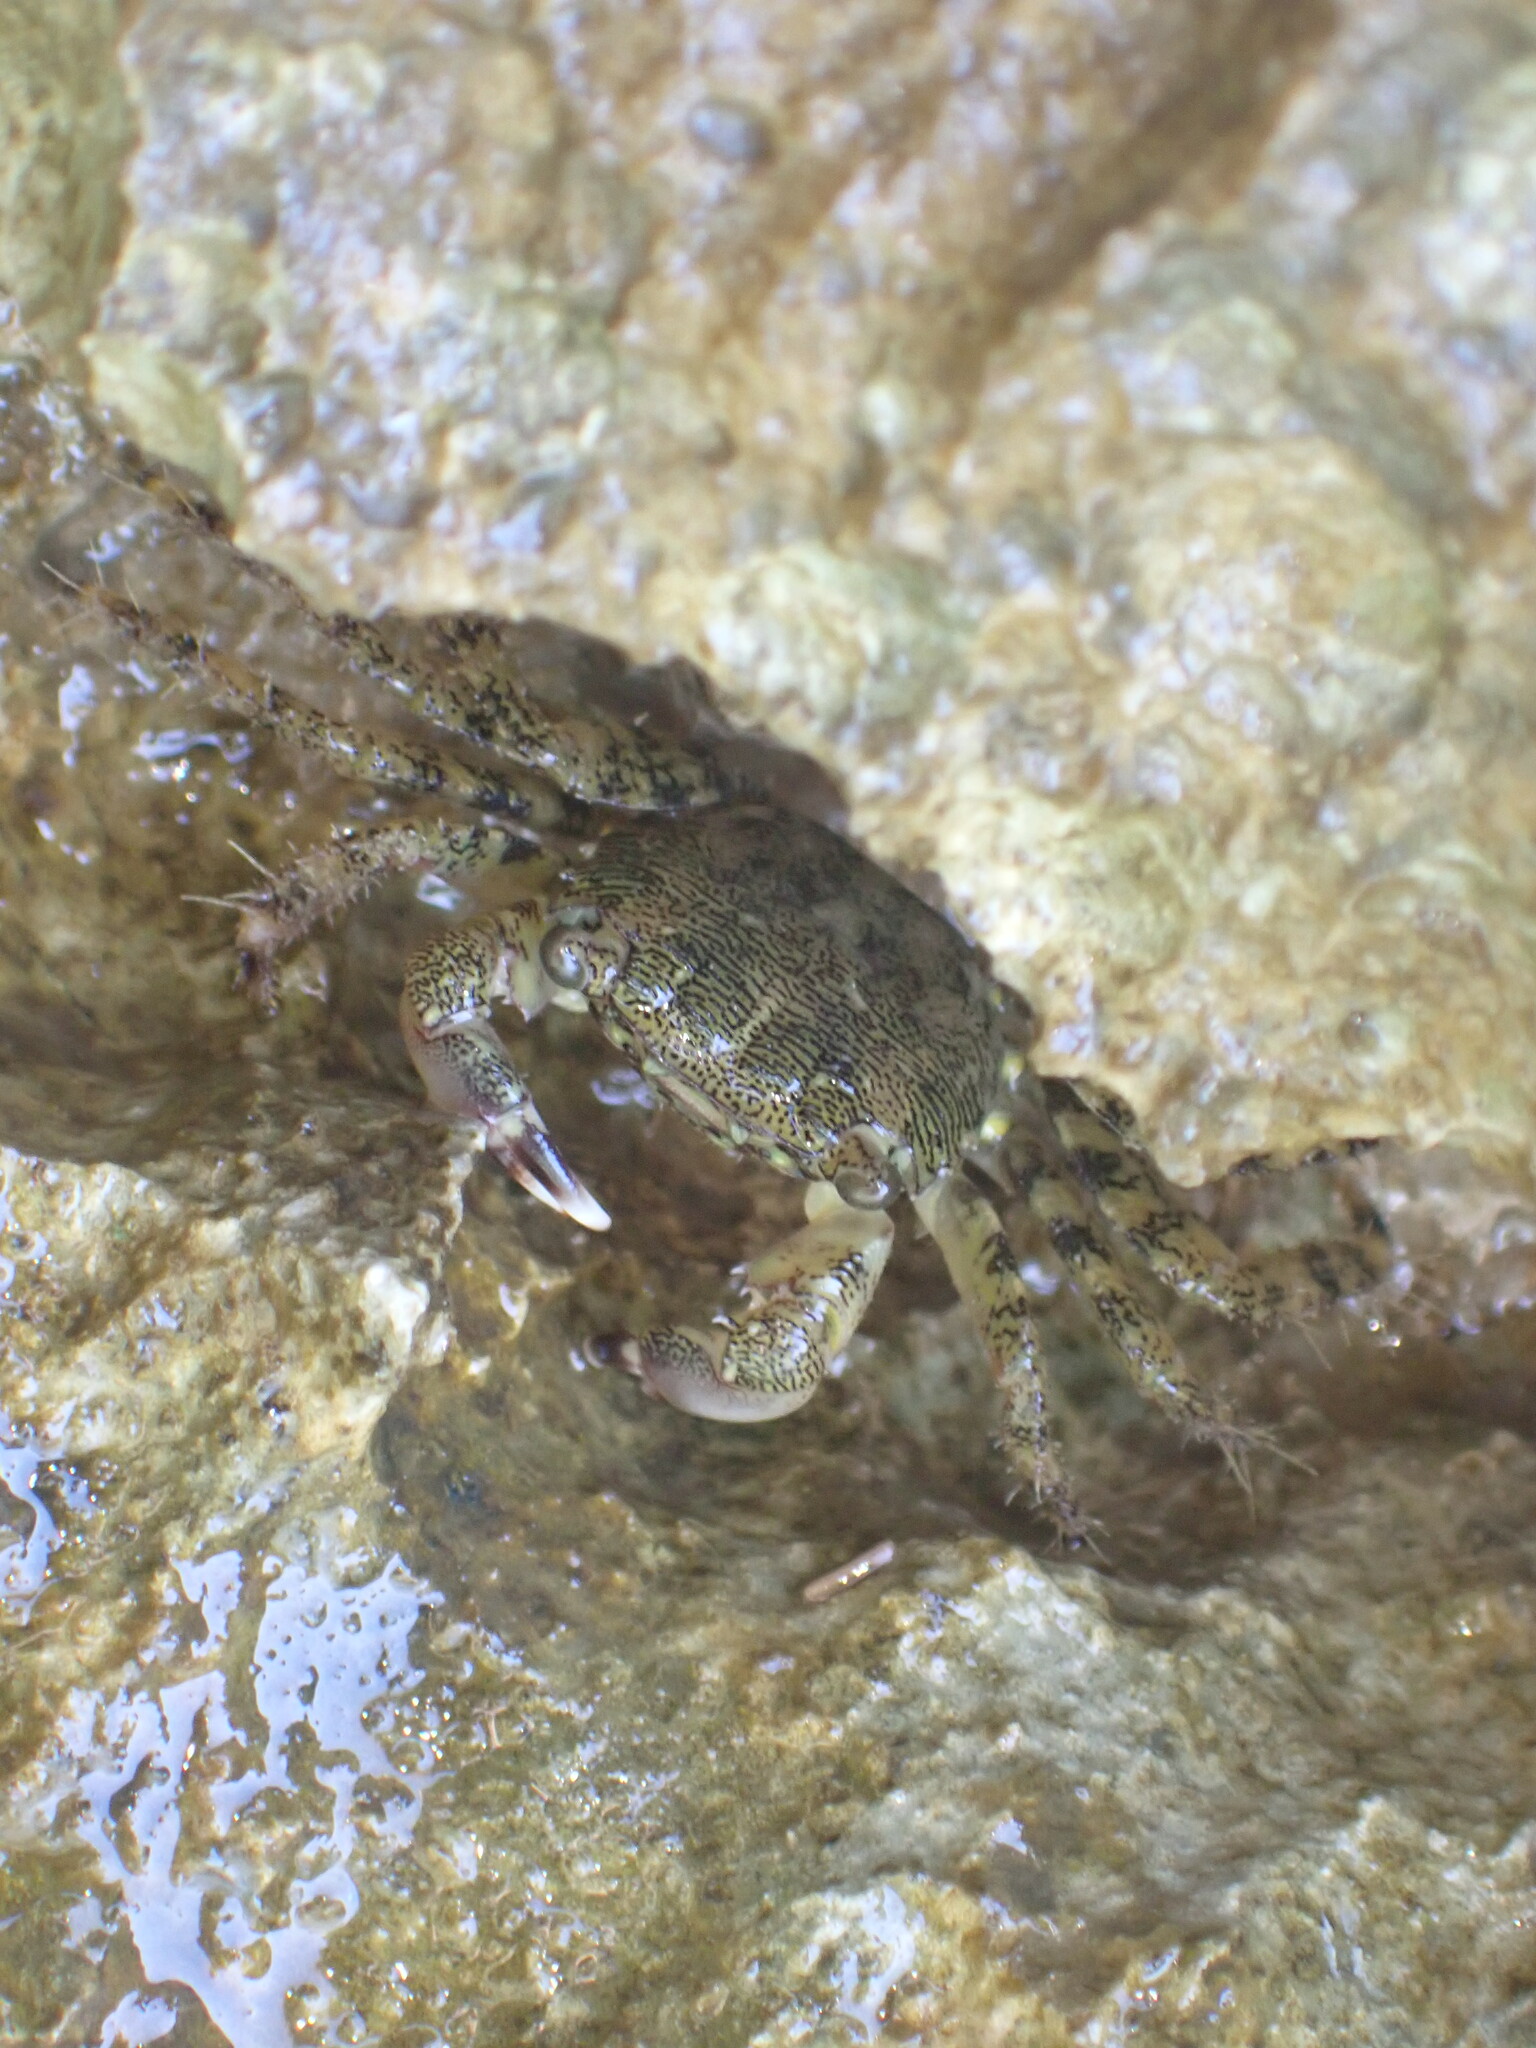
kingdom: Animalia
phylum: Arthropoda
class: Malacostraca
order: Decapoda
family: Grapsidae
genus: Pachygrapsus
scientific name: Pachygrapsus marmoratus
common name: Marbled rock crab
